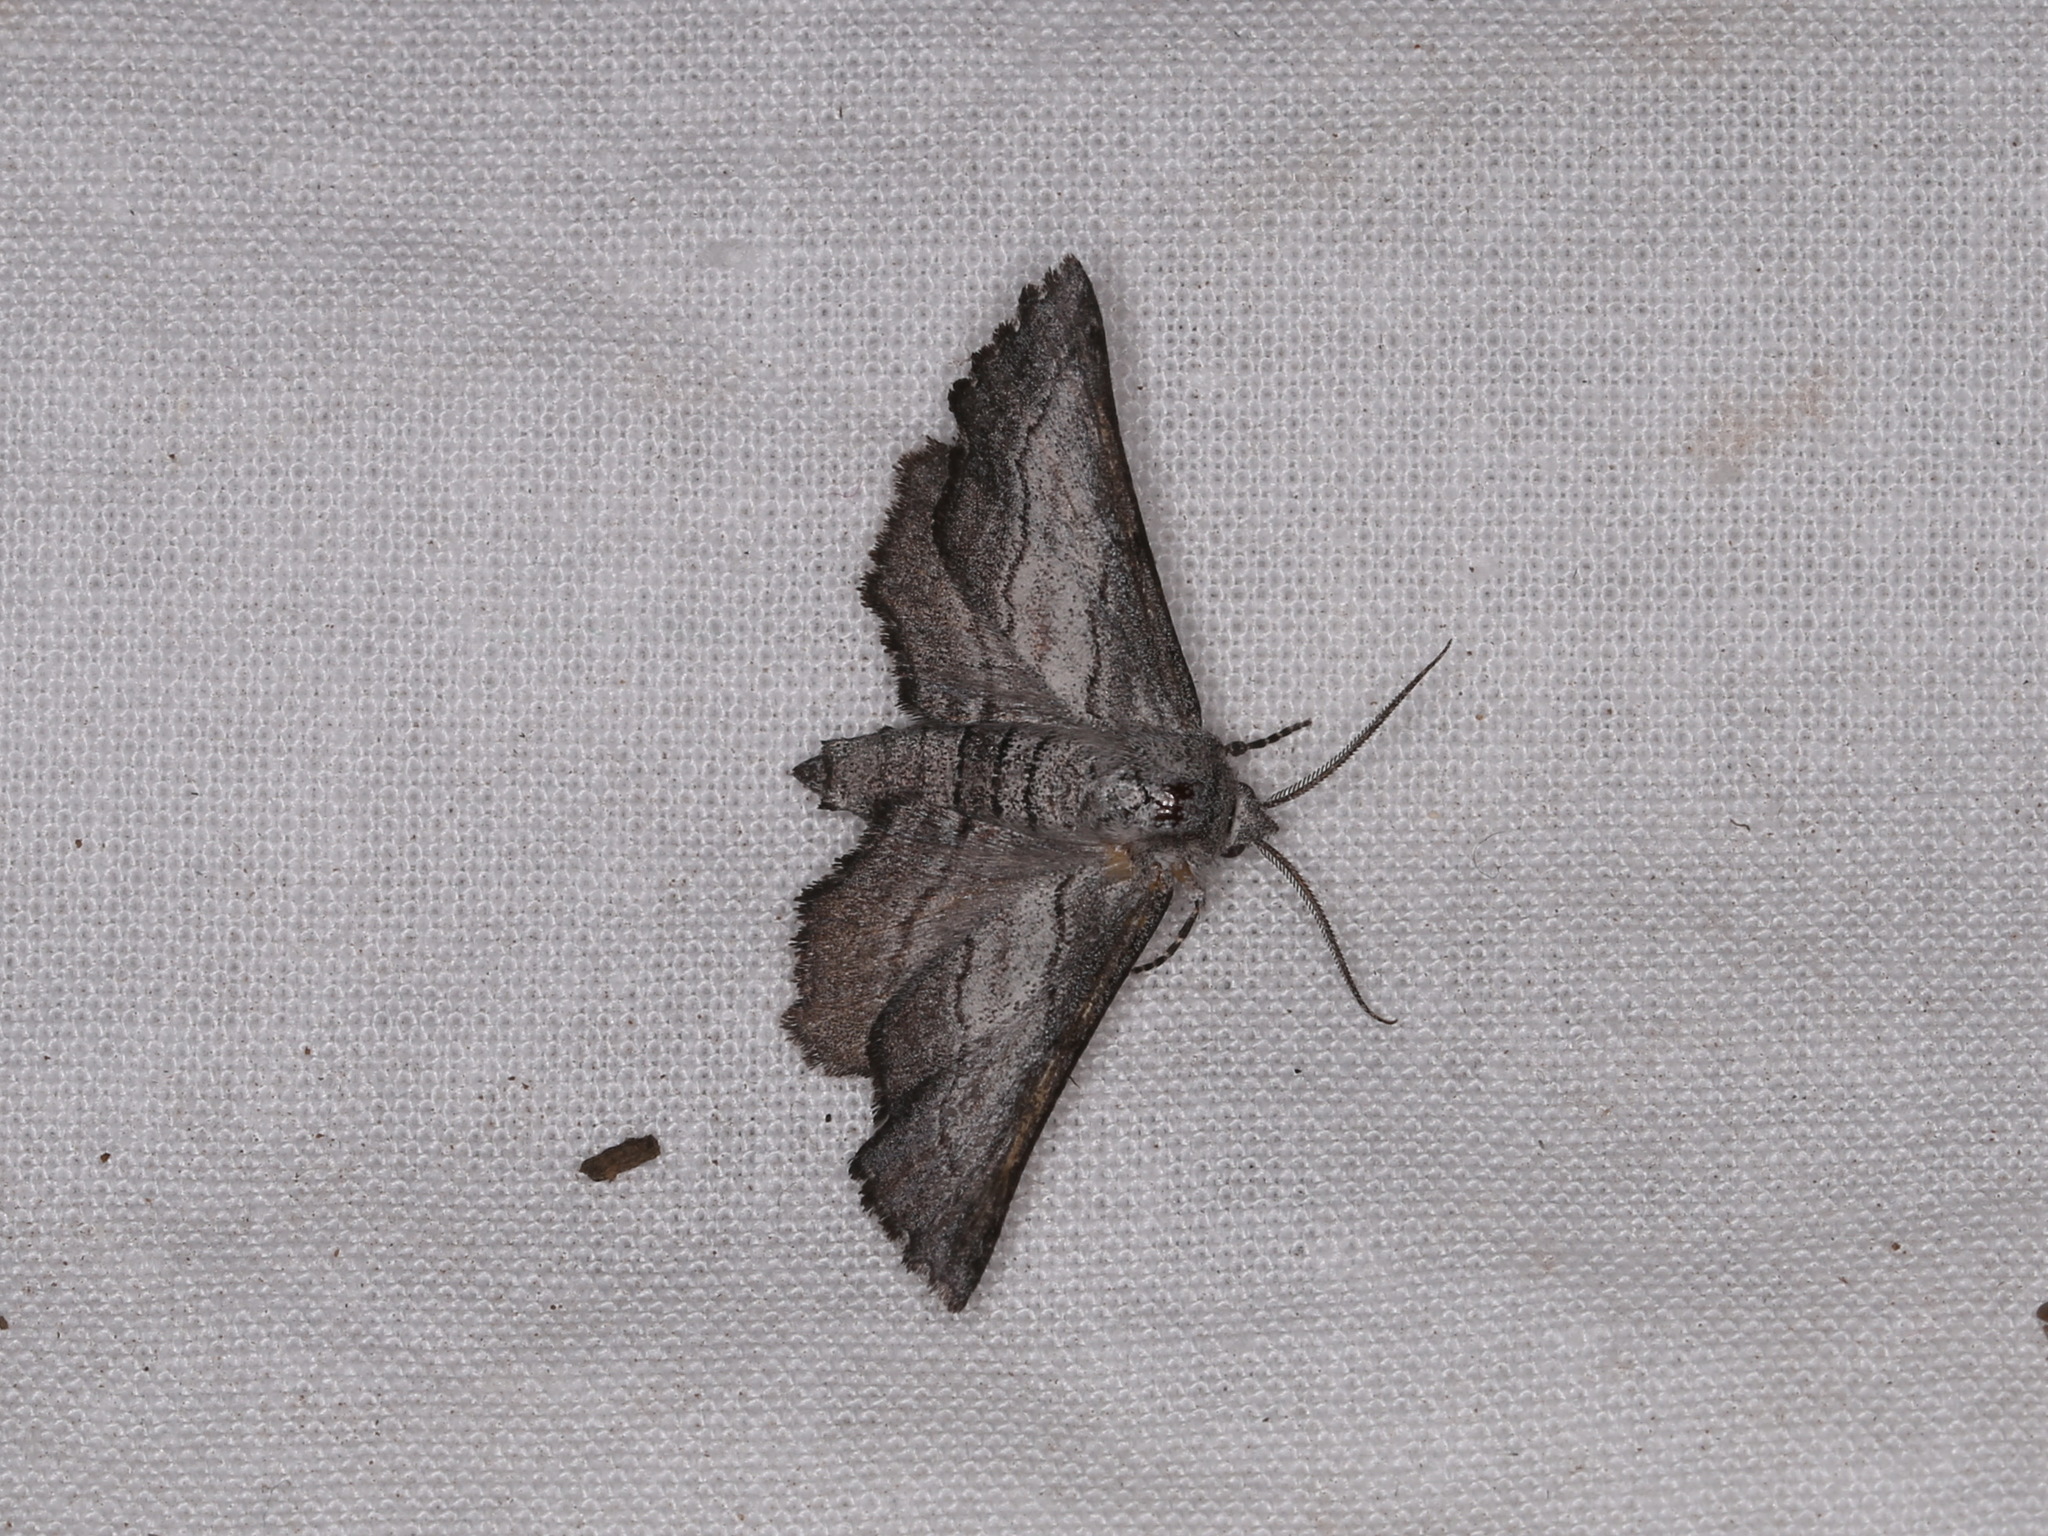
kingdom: Animalia
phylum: Arthropoda
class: Insecta
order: Lepidoptera
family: Geometridae
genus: Dinophalus
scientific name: Dinophalus oxystoma
